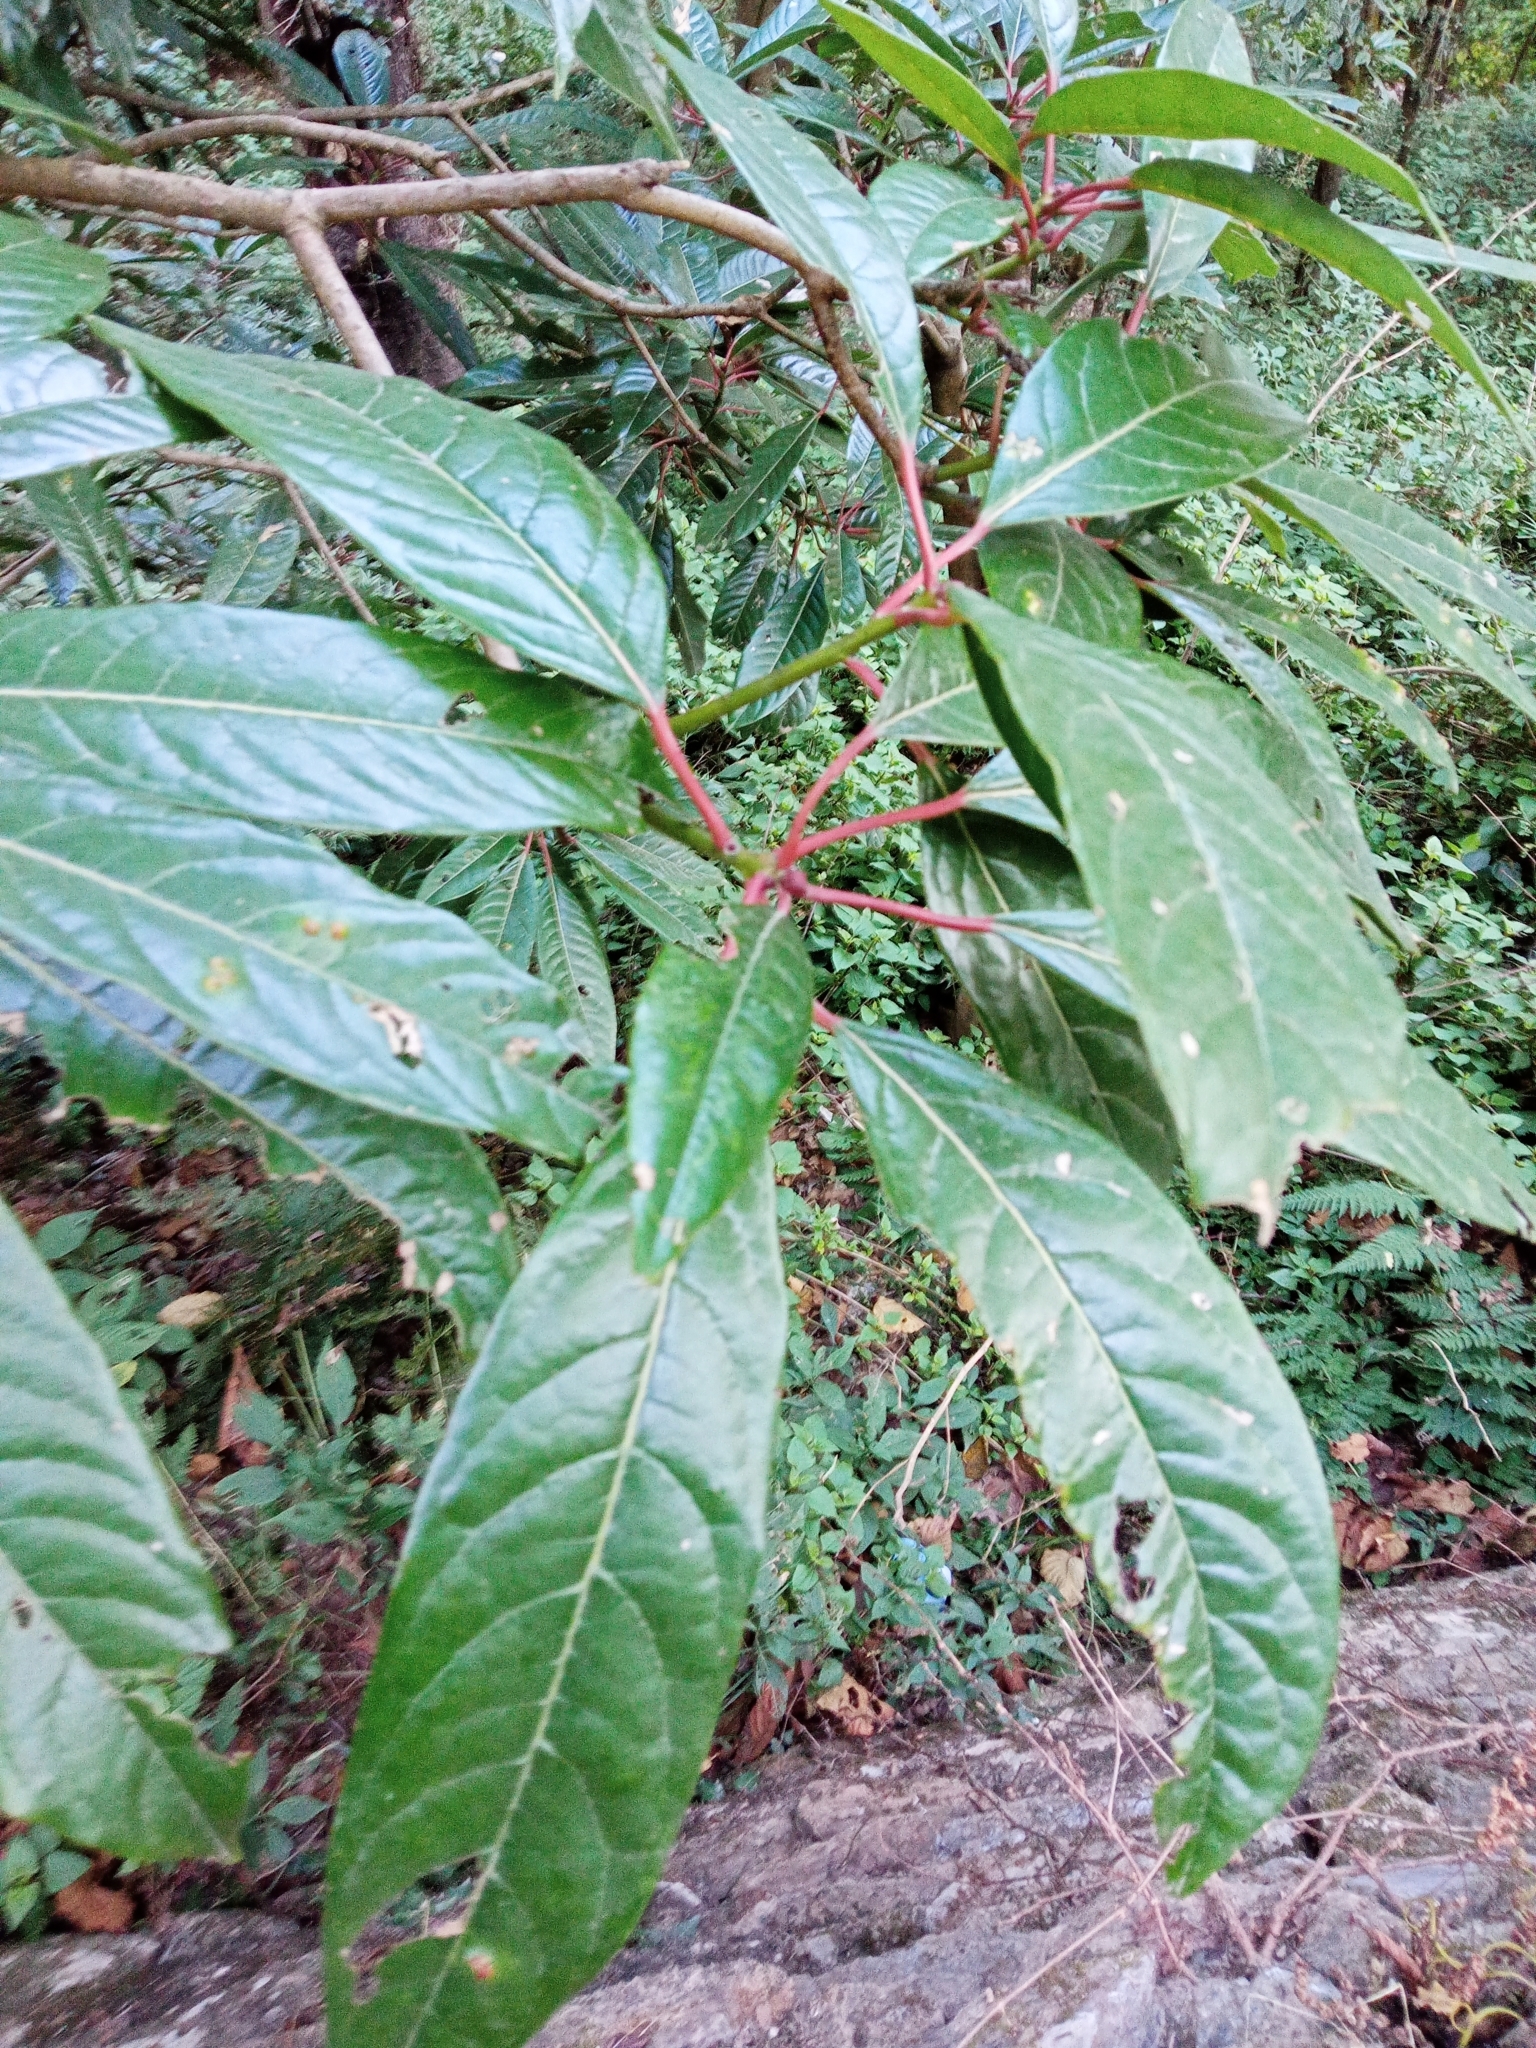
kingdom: Plantae
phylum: Tracheophyta
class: Magnoliopsida
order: Saxifragales
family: Daphniphyllaceae
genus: Daphniphyllum
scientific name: Daphniphyllum chartaceum
